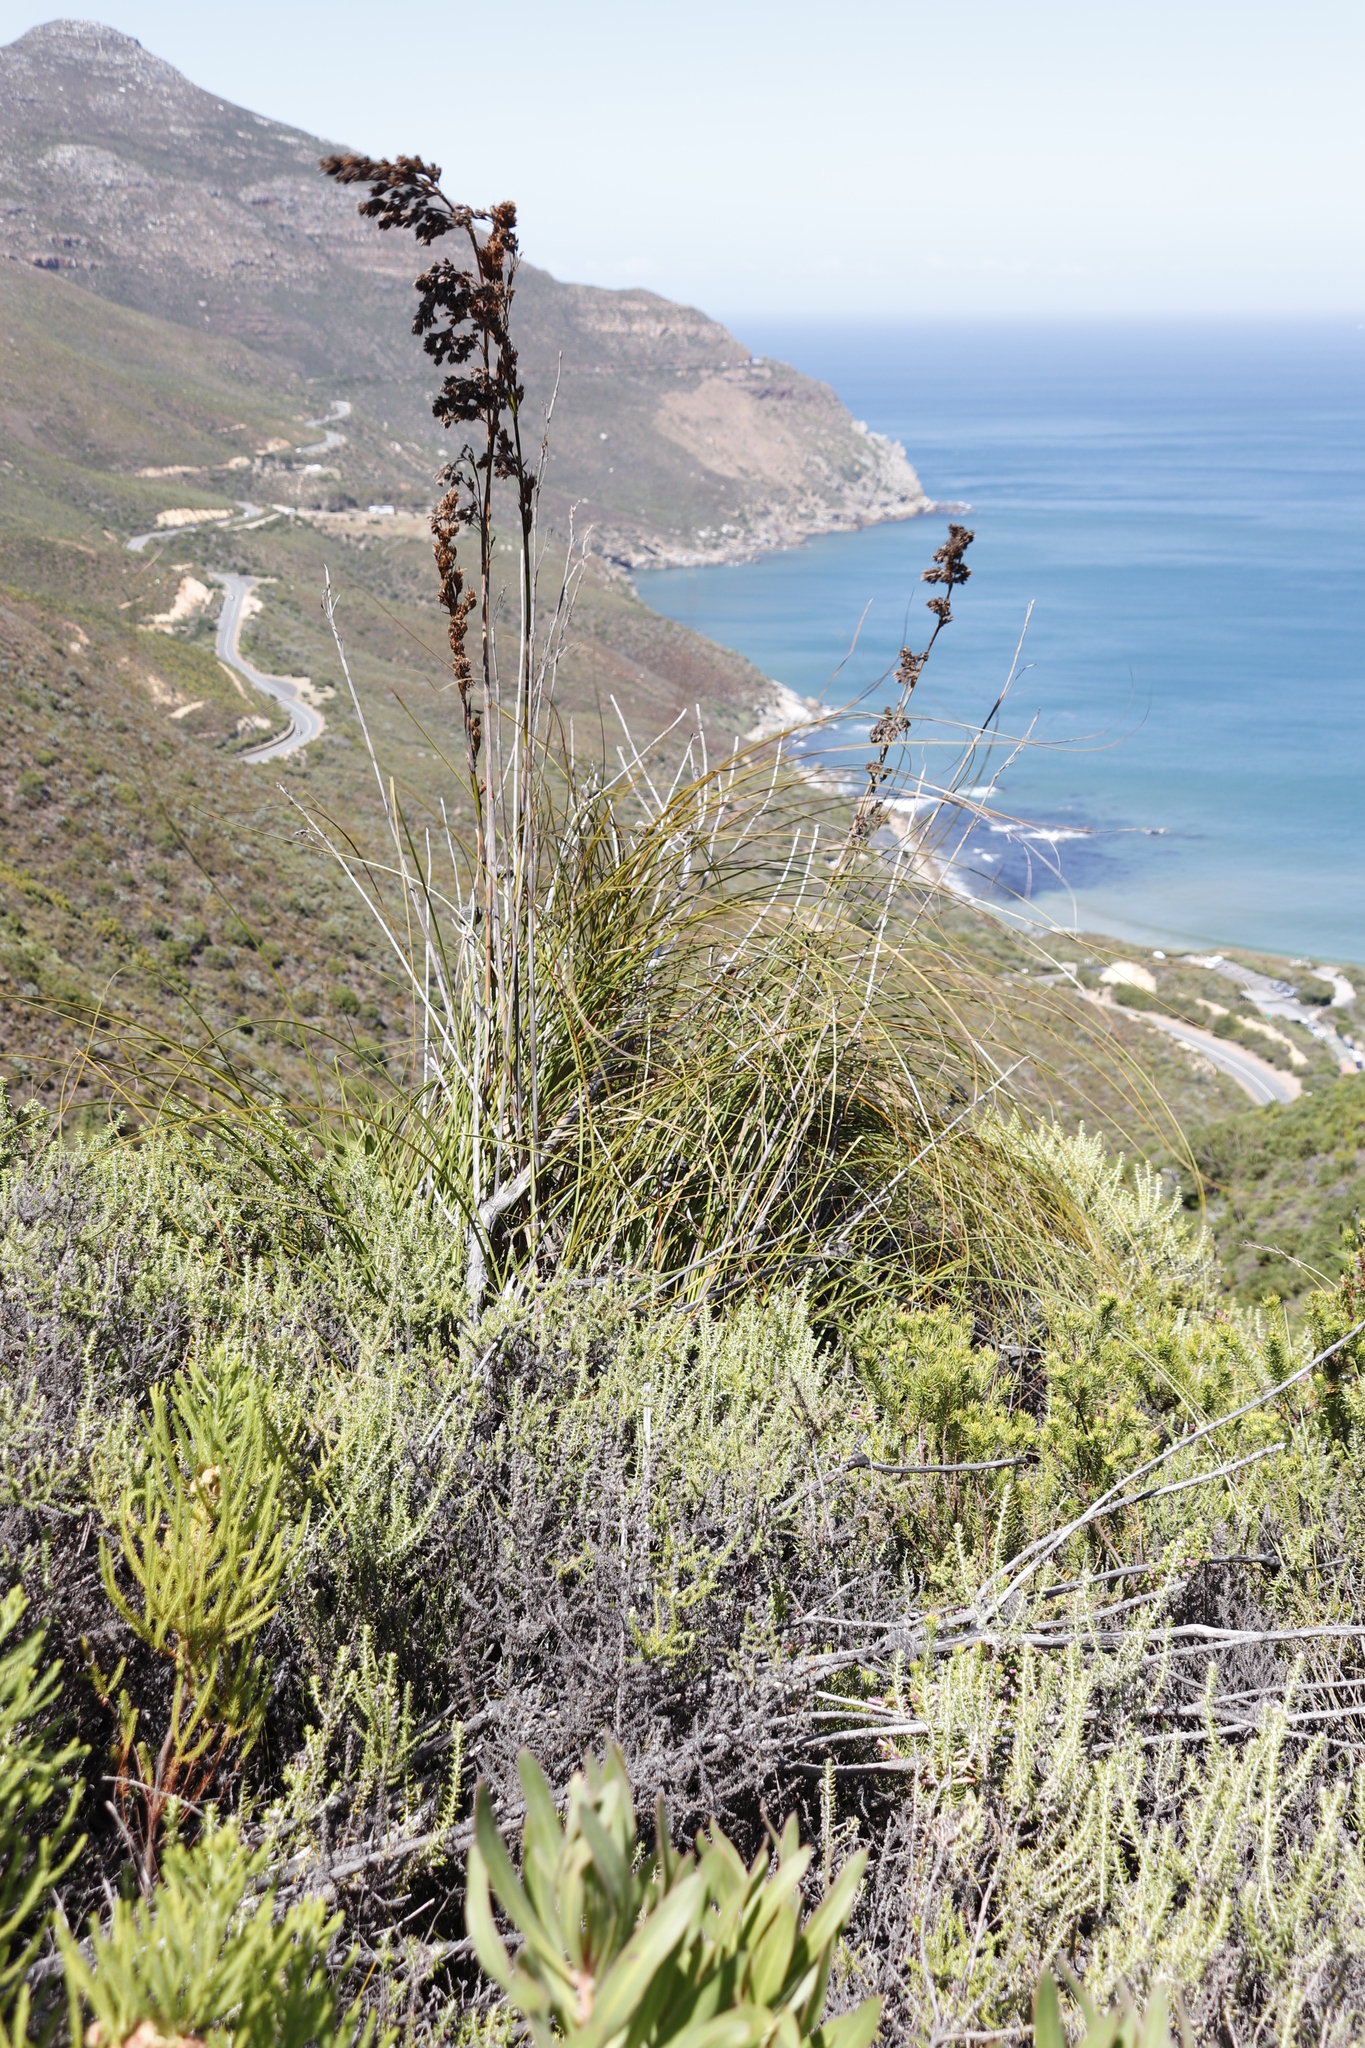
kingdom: Plantae
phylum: Tracheophyta
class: Liliopsida
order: Poales
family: Cyperaceae
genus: Tetraria
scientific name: Tetraria involucrata
